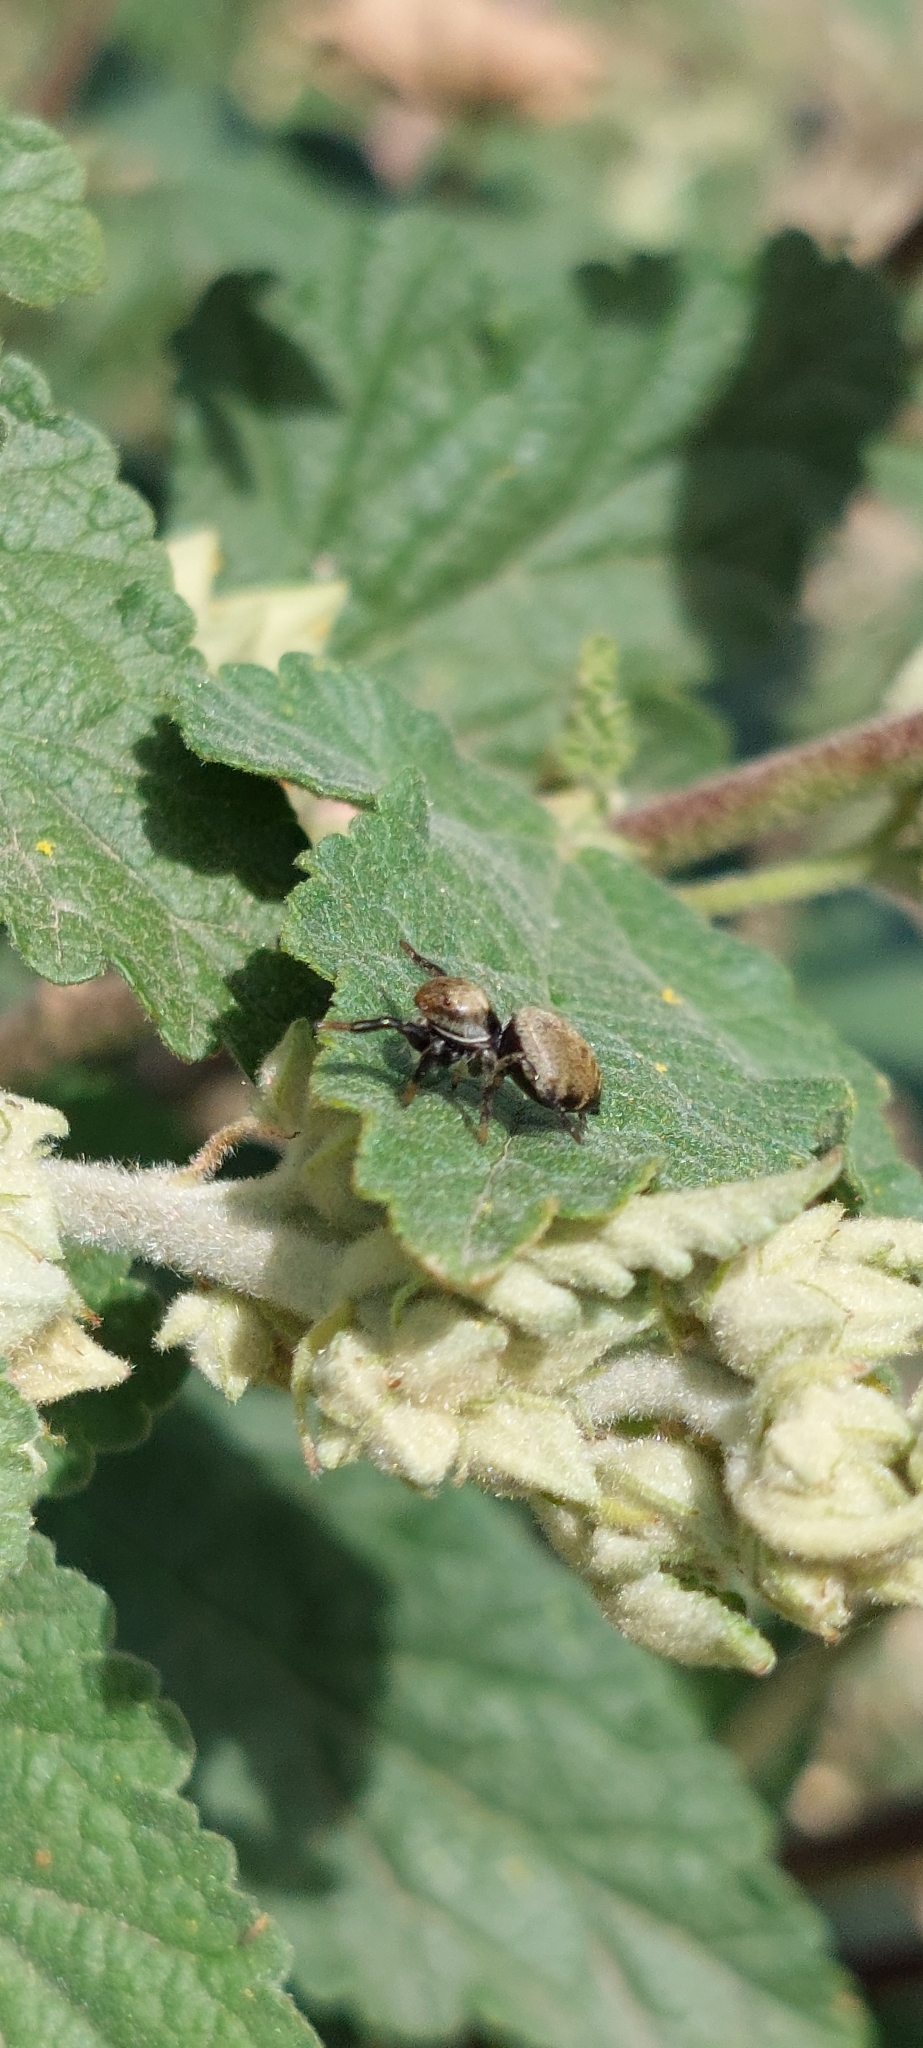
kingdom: Animalia
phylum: Arthropoda
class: Arachnida
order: Araneae
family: Salticidae
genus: Phiale
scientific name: Phiale roburifoliata
